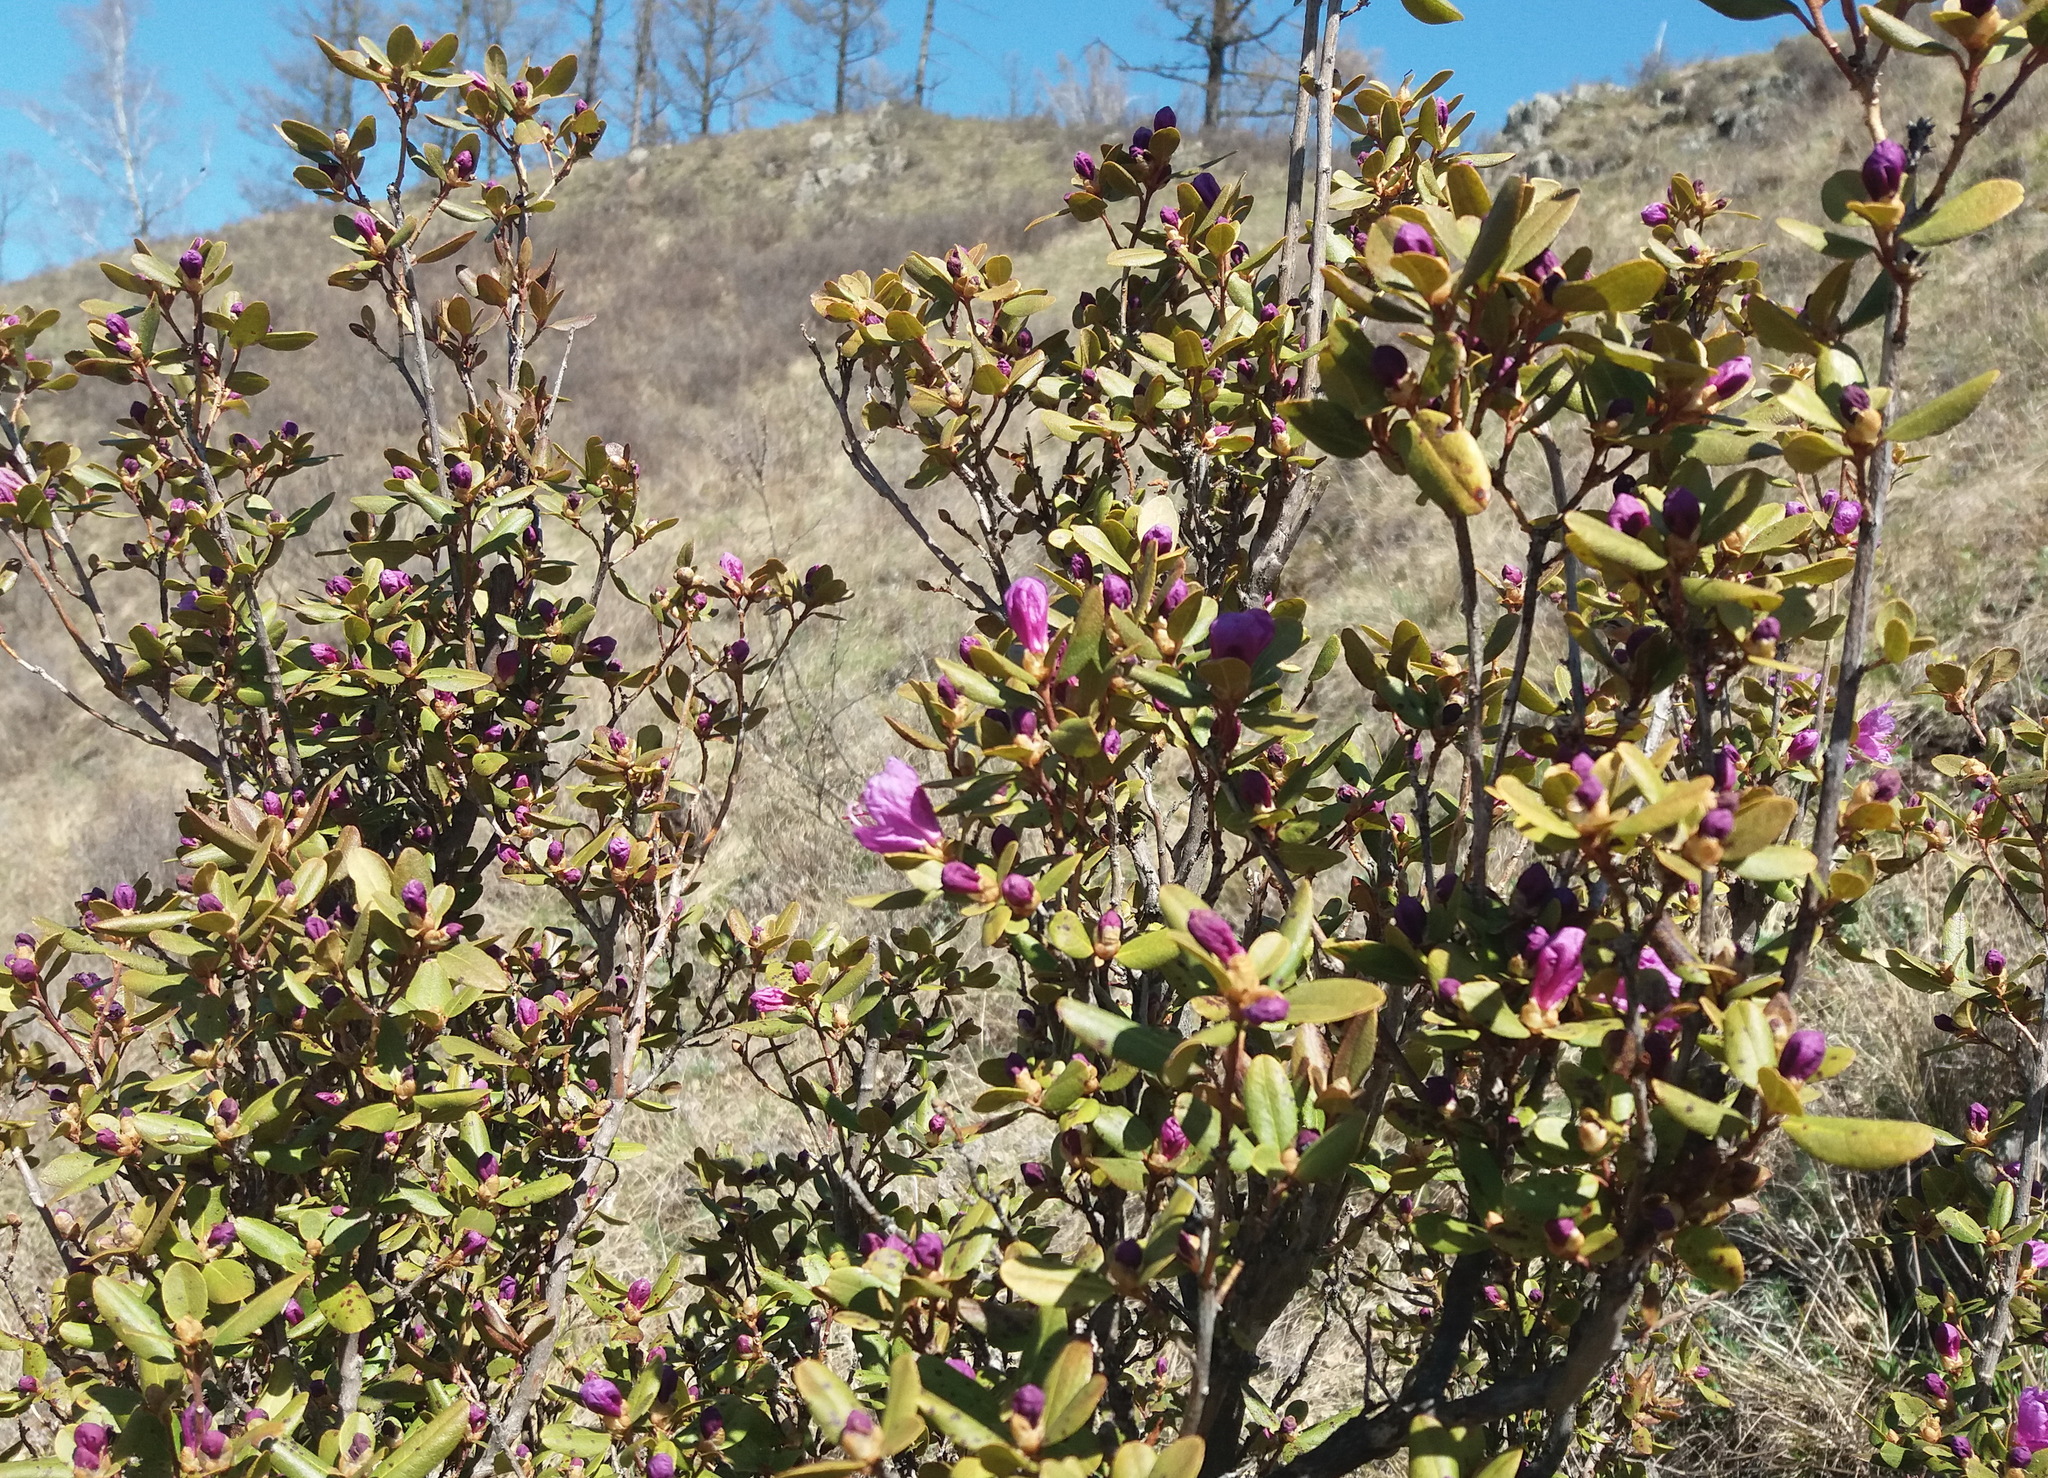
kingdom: Plantae
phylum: Tracheophyta
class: Magnoliopsida
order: Ericales
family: Ericaceae
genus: Rhododendron
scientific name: Rhododendron dauricum
